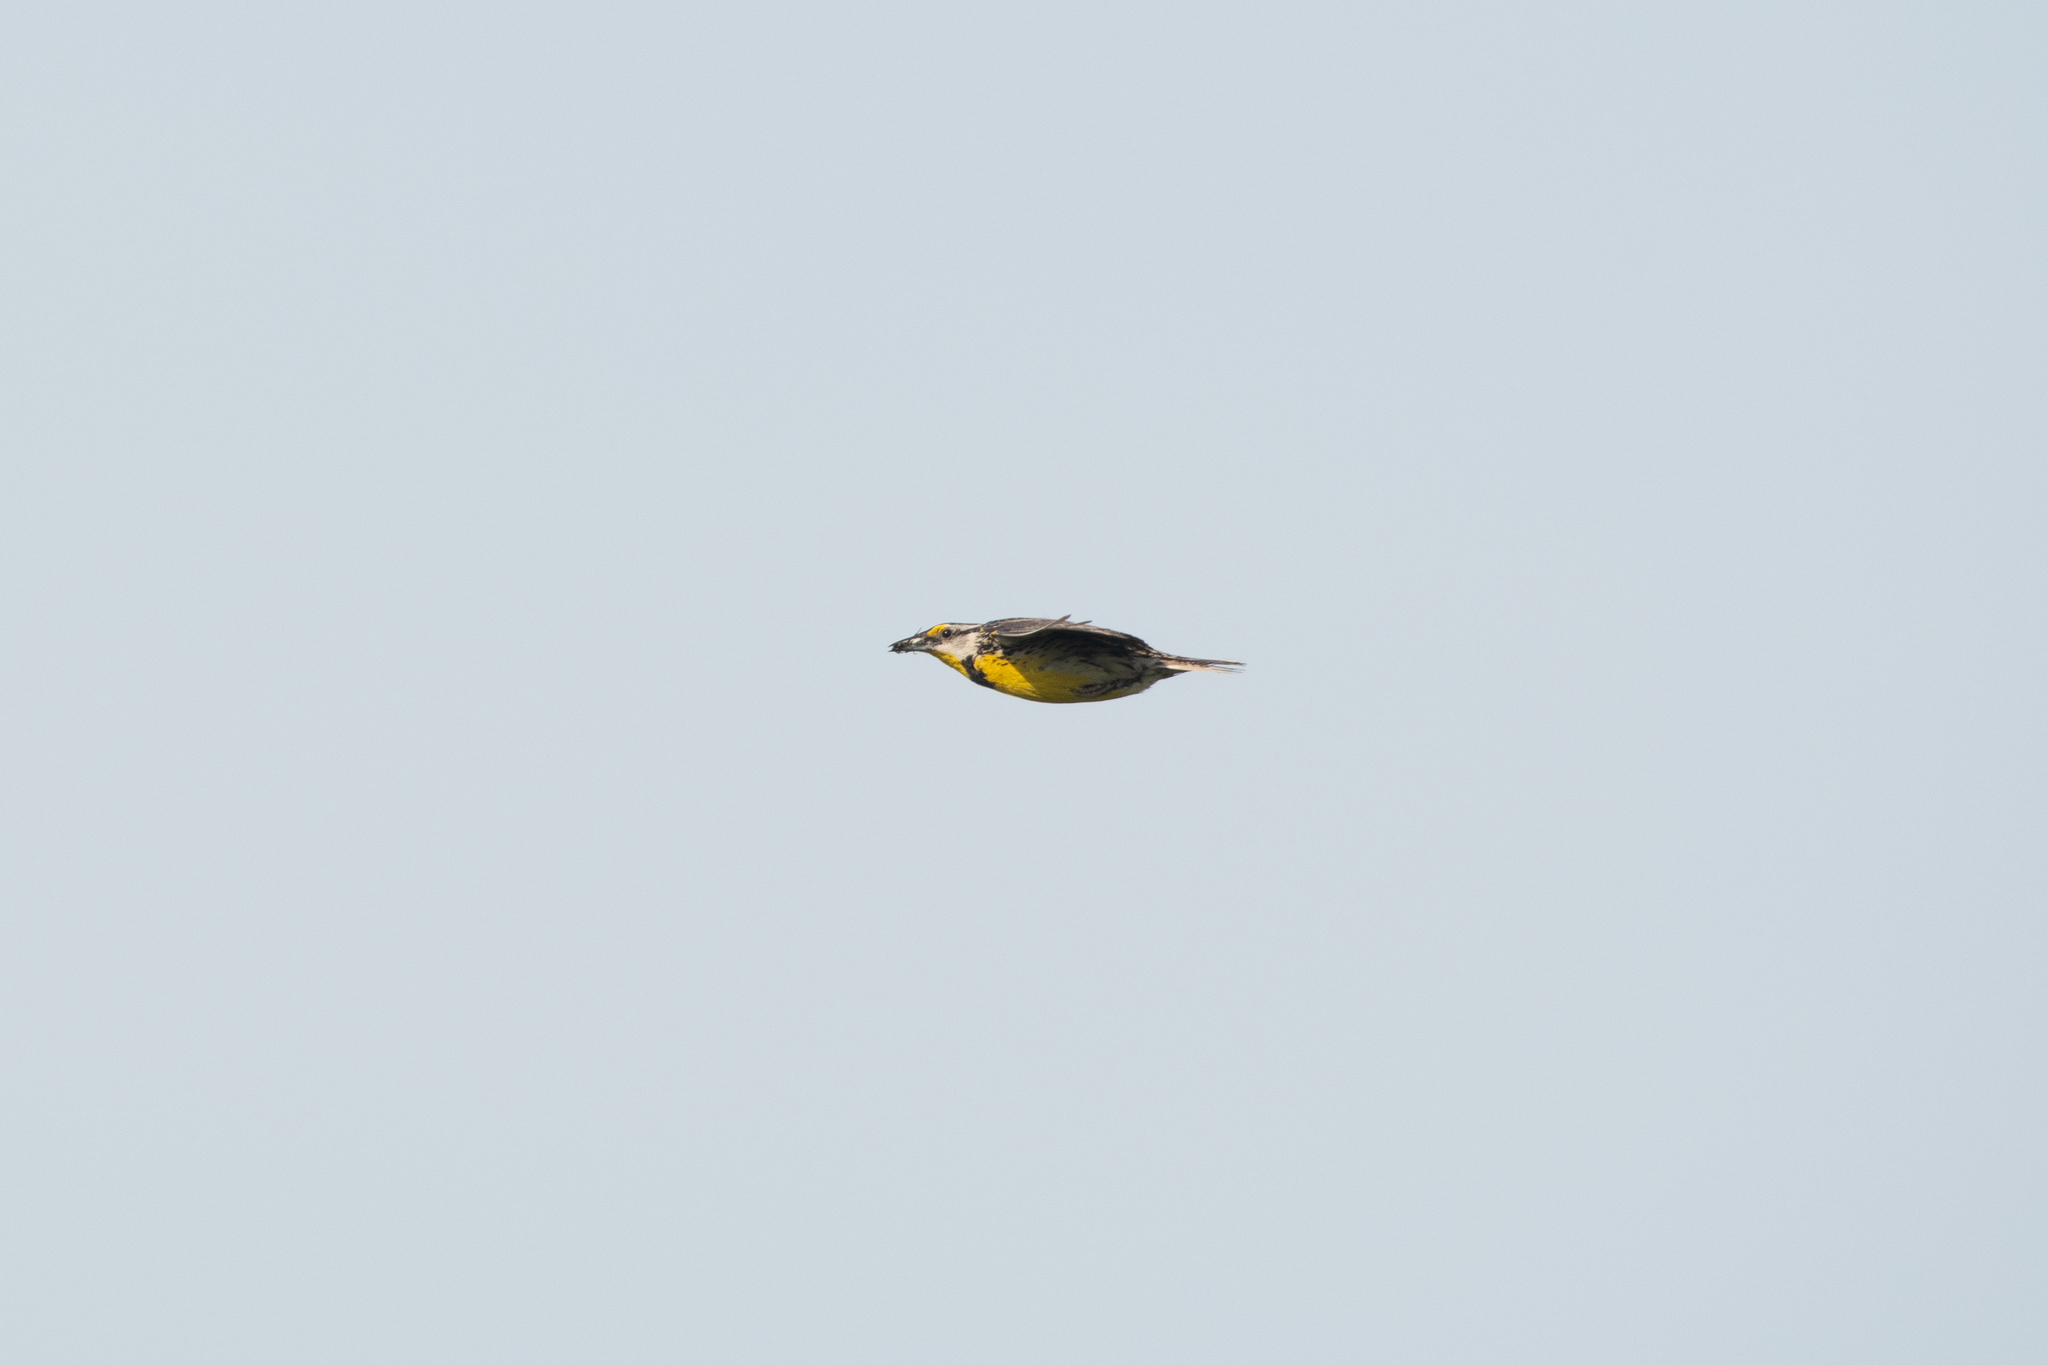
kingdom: Animalia
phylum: Chordata
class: Aves
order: Passeriformes
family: Icteridae
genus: Sturnella
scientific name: Sturnella magna
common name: Eastern meadowlark
